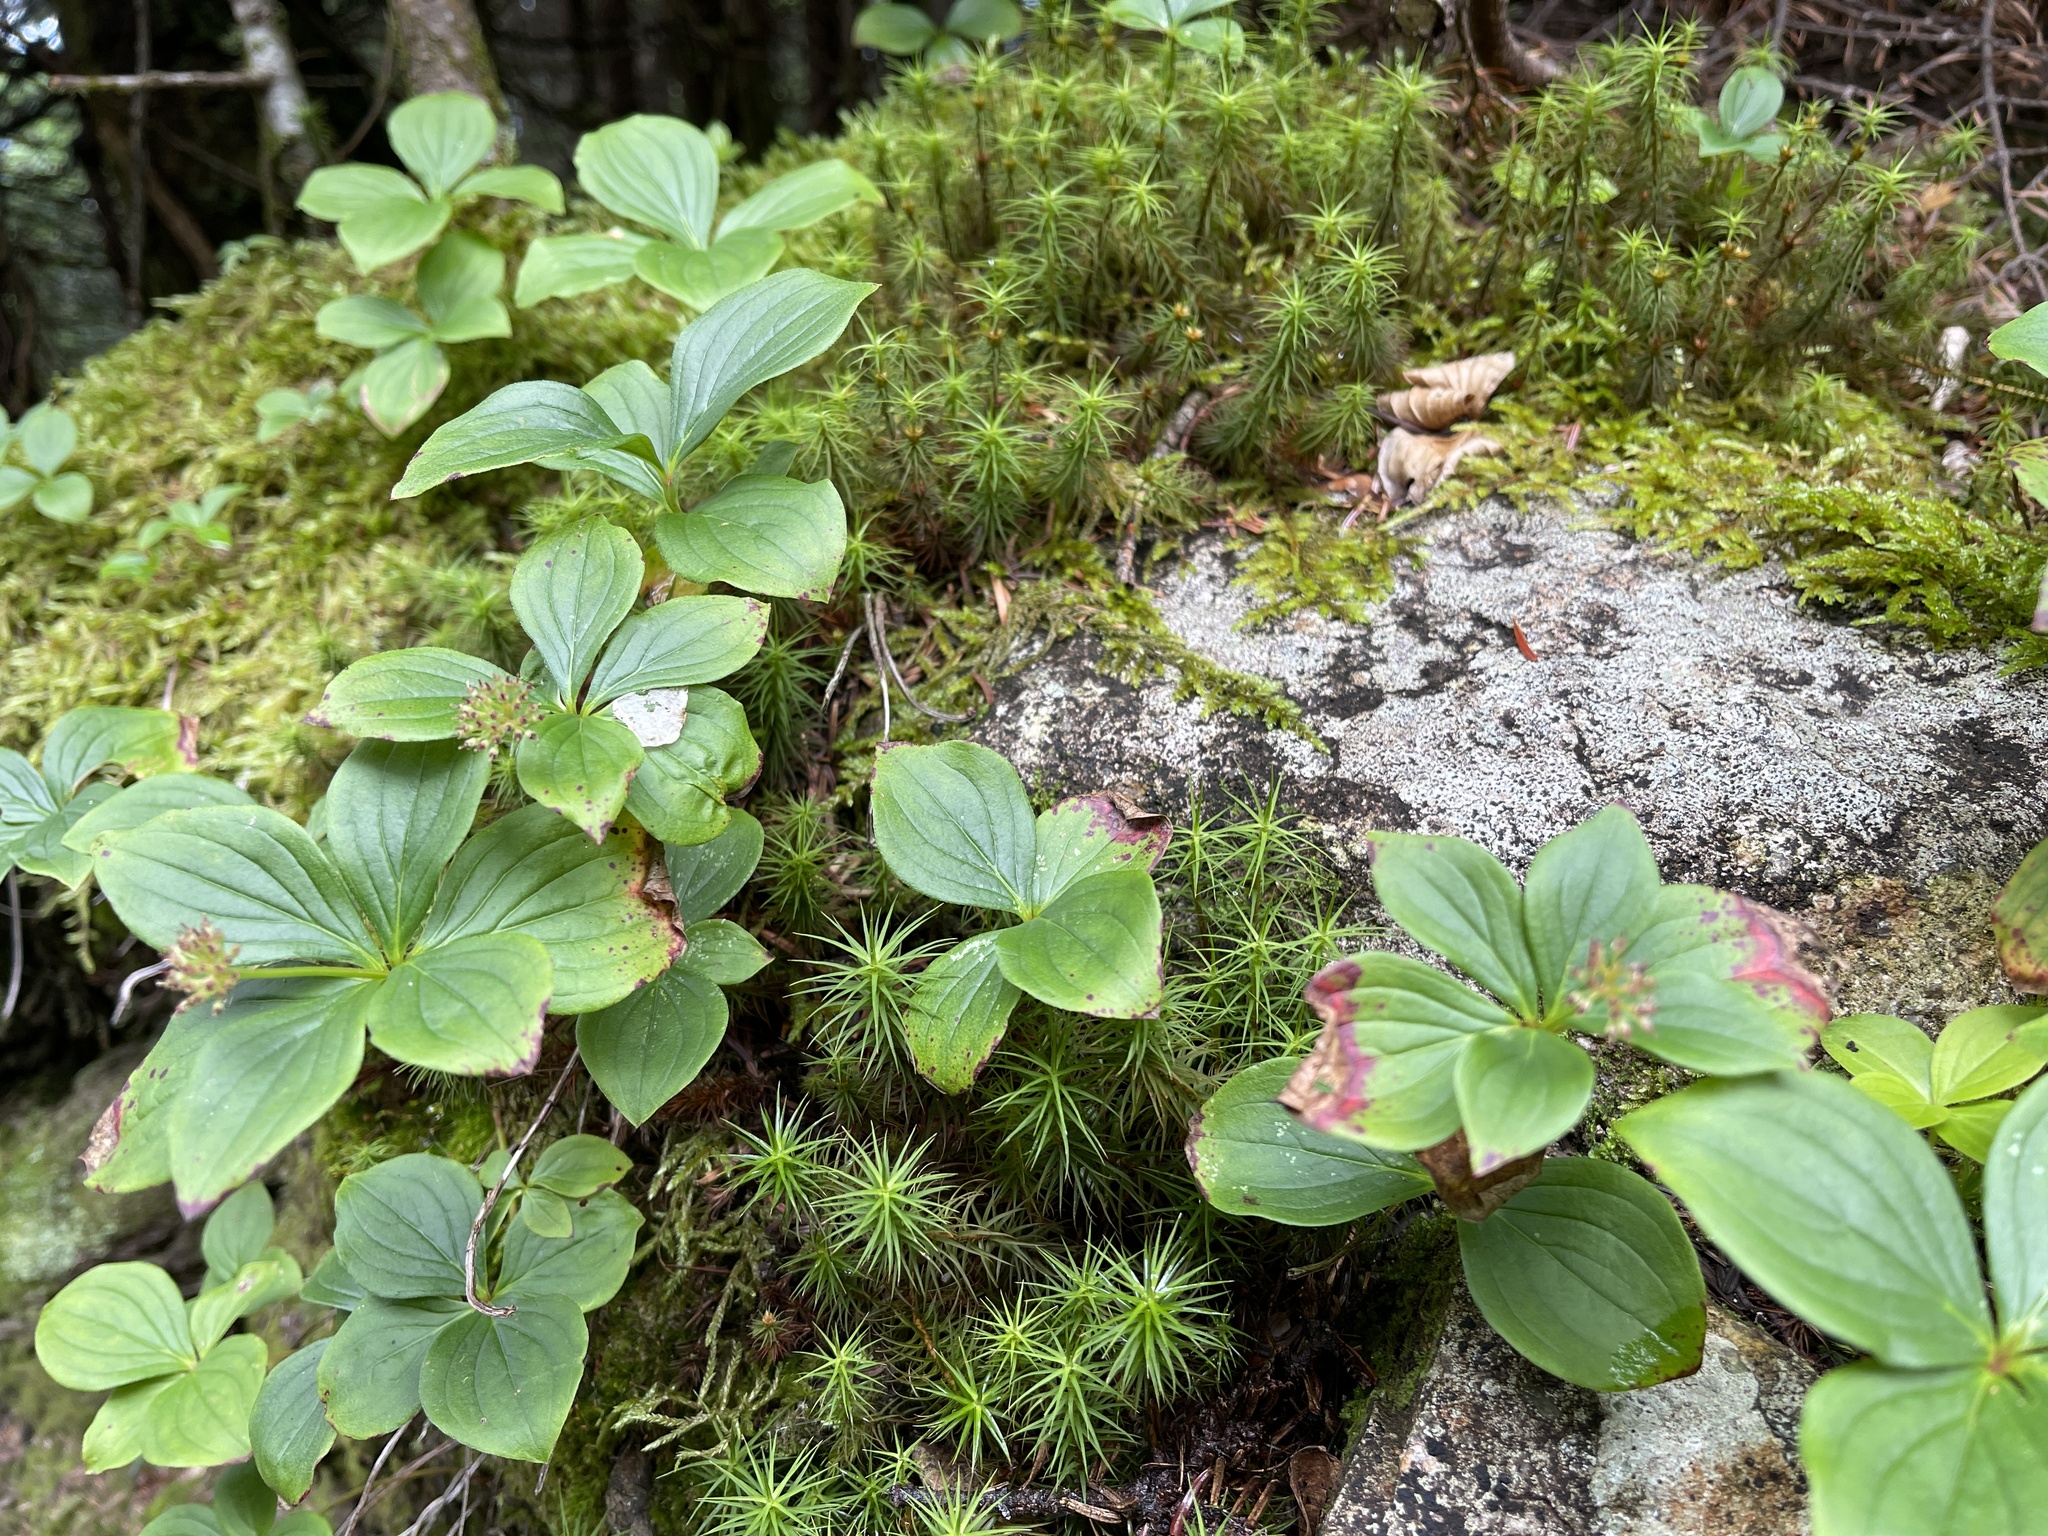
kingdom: Plantae
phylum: Tracheophyta
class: Magnoliopsida
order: Cornales
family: Cornaceae
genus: Cornus
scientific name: Cornus canadensis
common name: Creeping dogwood
